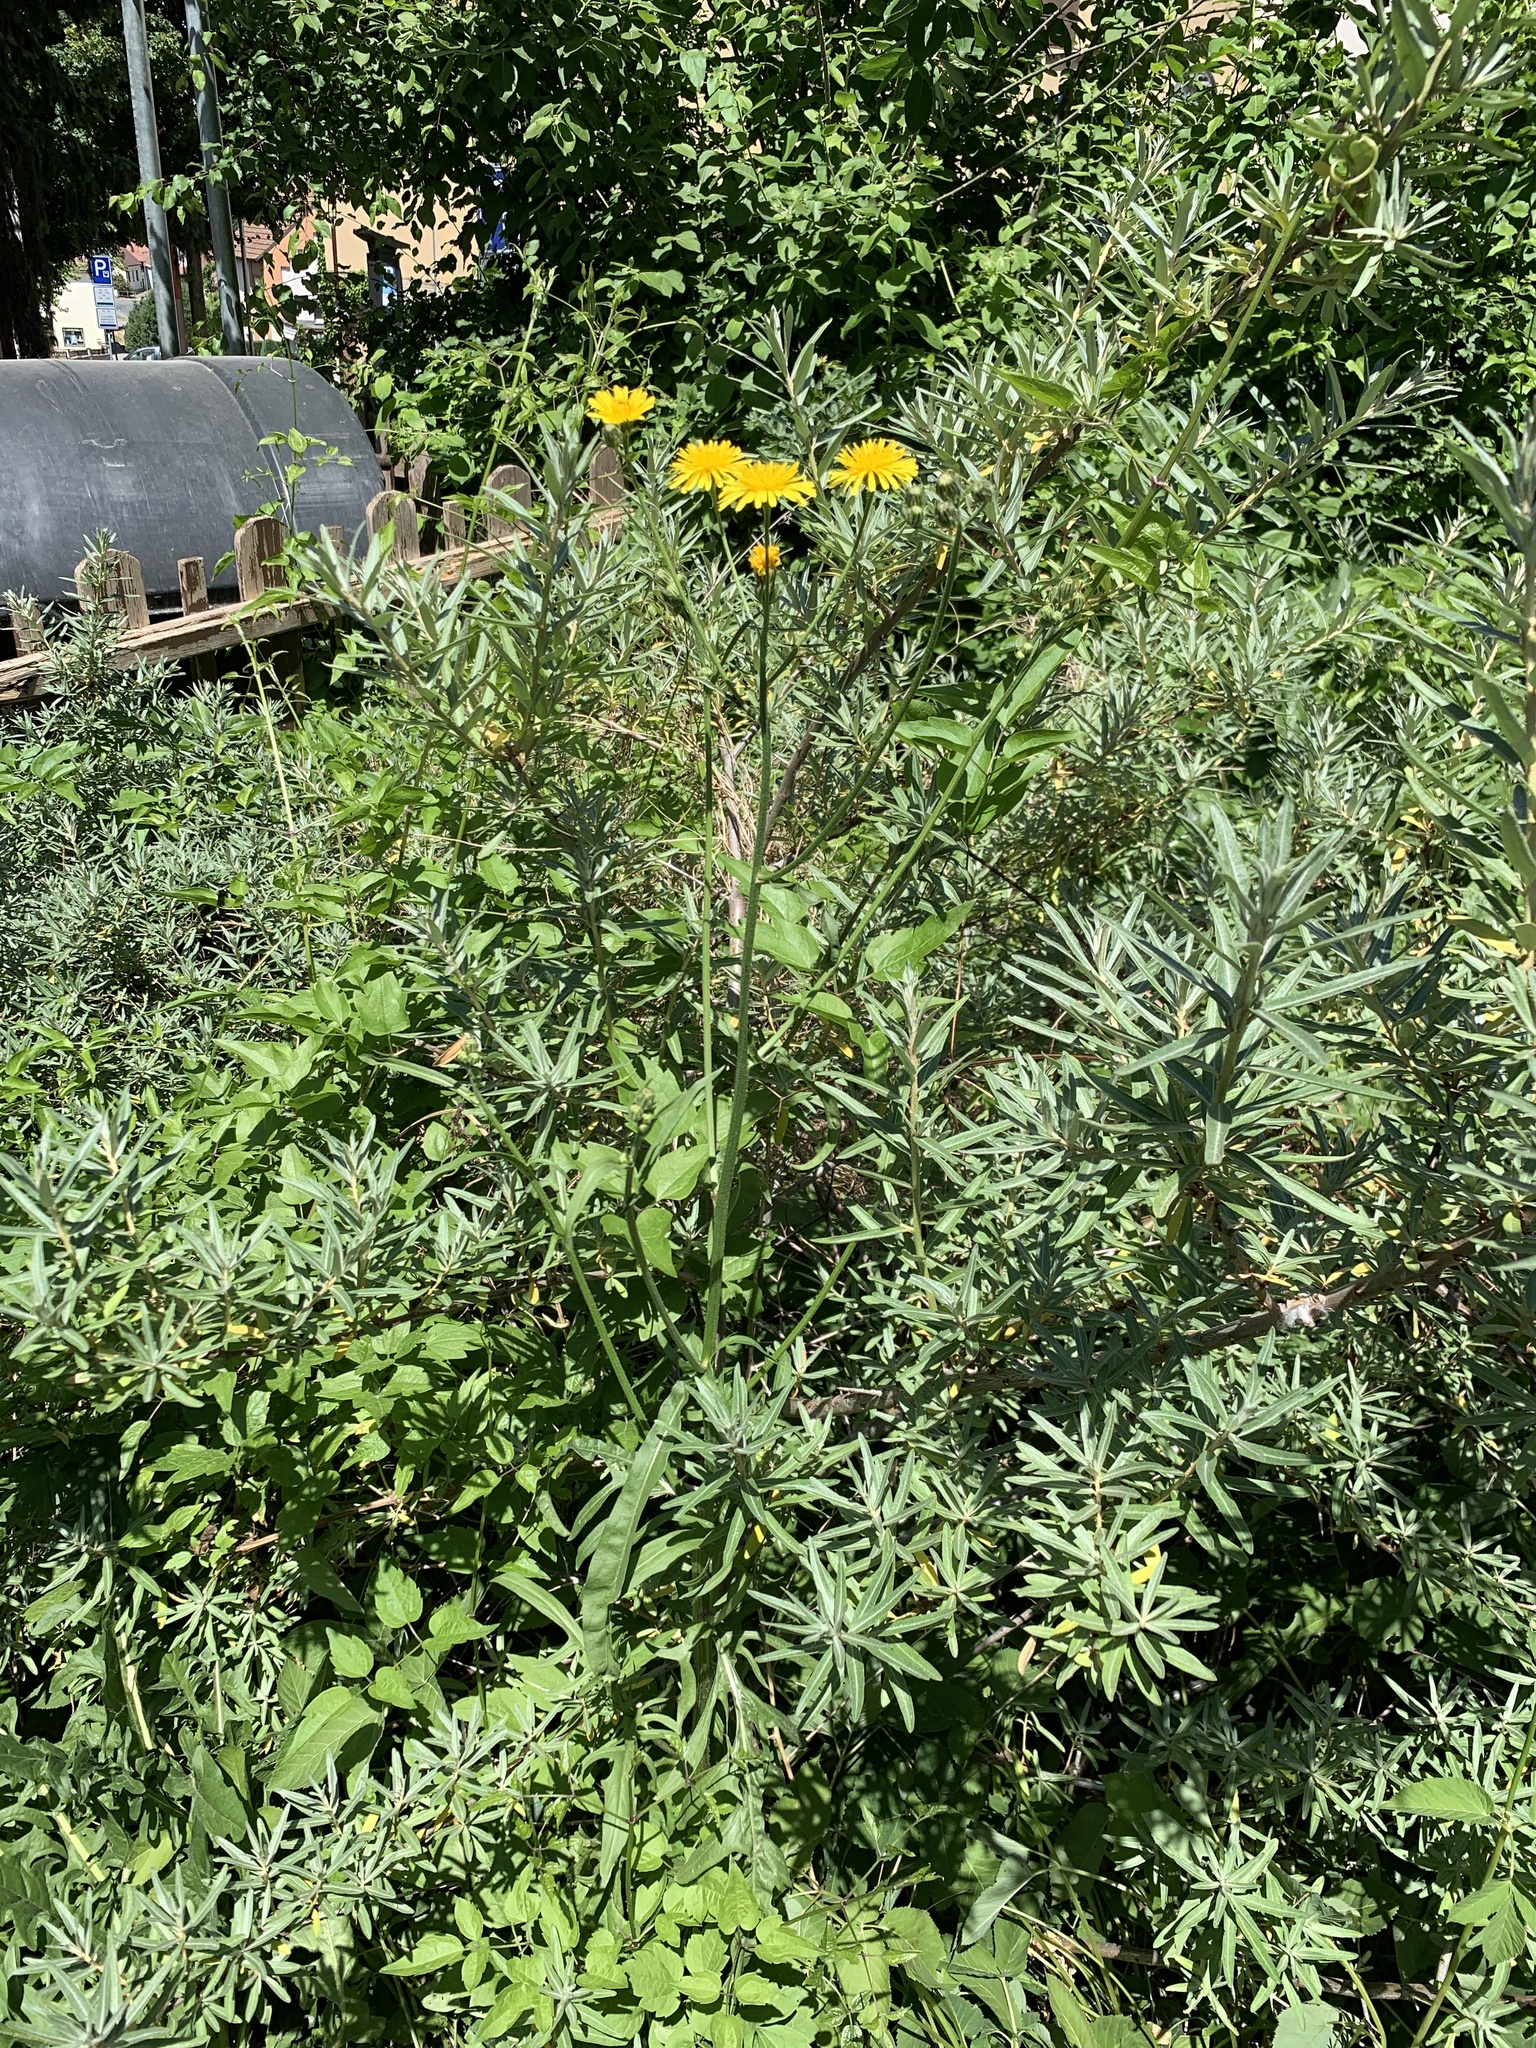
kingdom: Plantae
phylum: Tracheophyta
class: Magnoliopsida
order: Asterales
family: Asteraceae
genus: Crepis
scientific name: Crepis biennis
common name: Rough hawk's-beard
